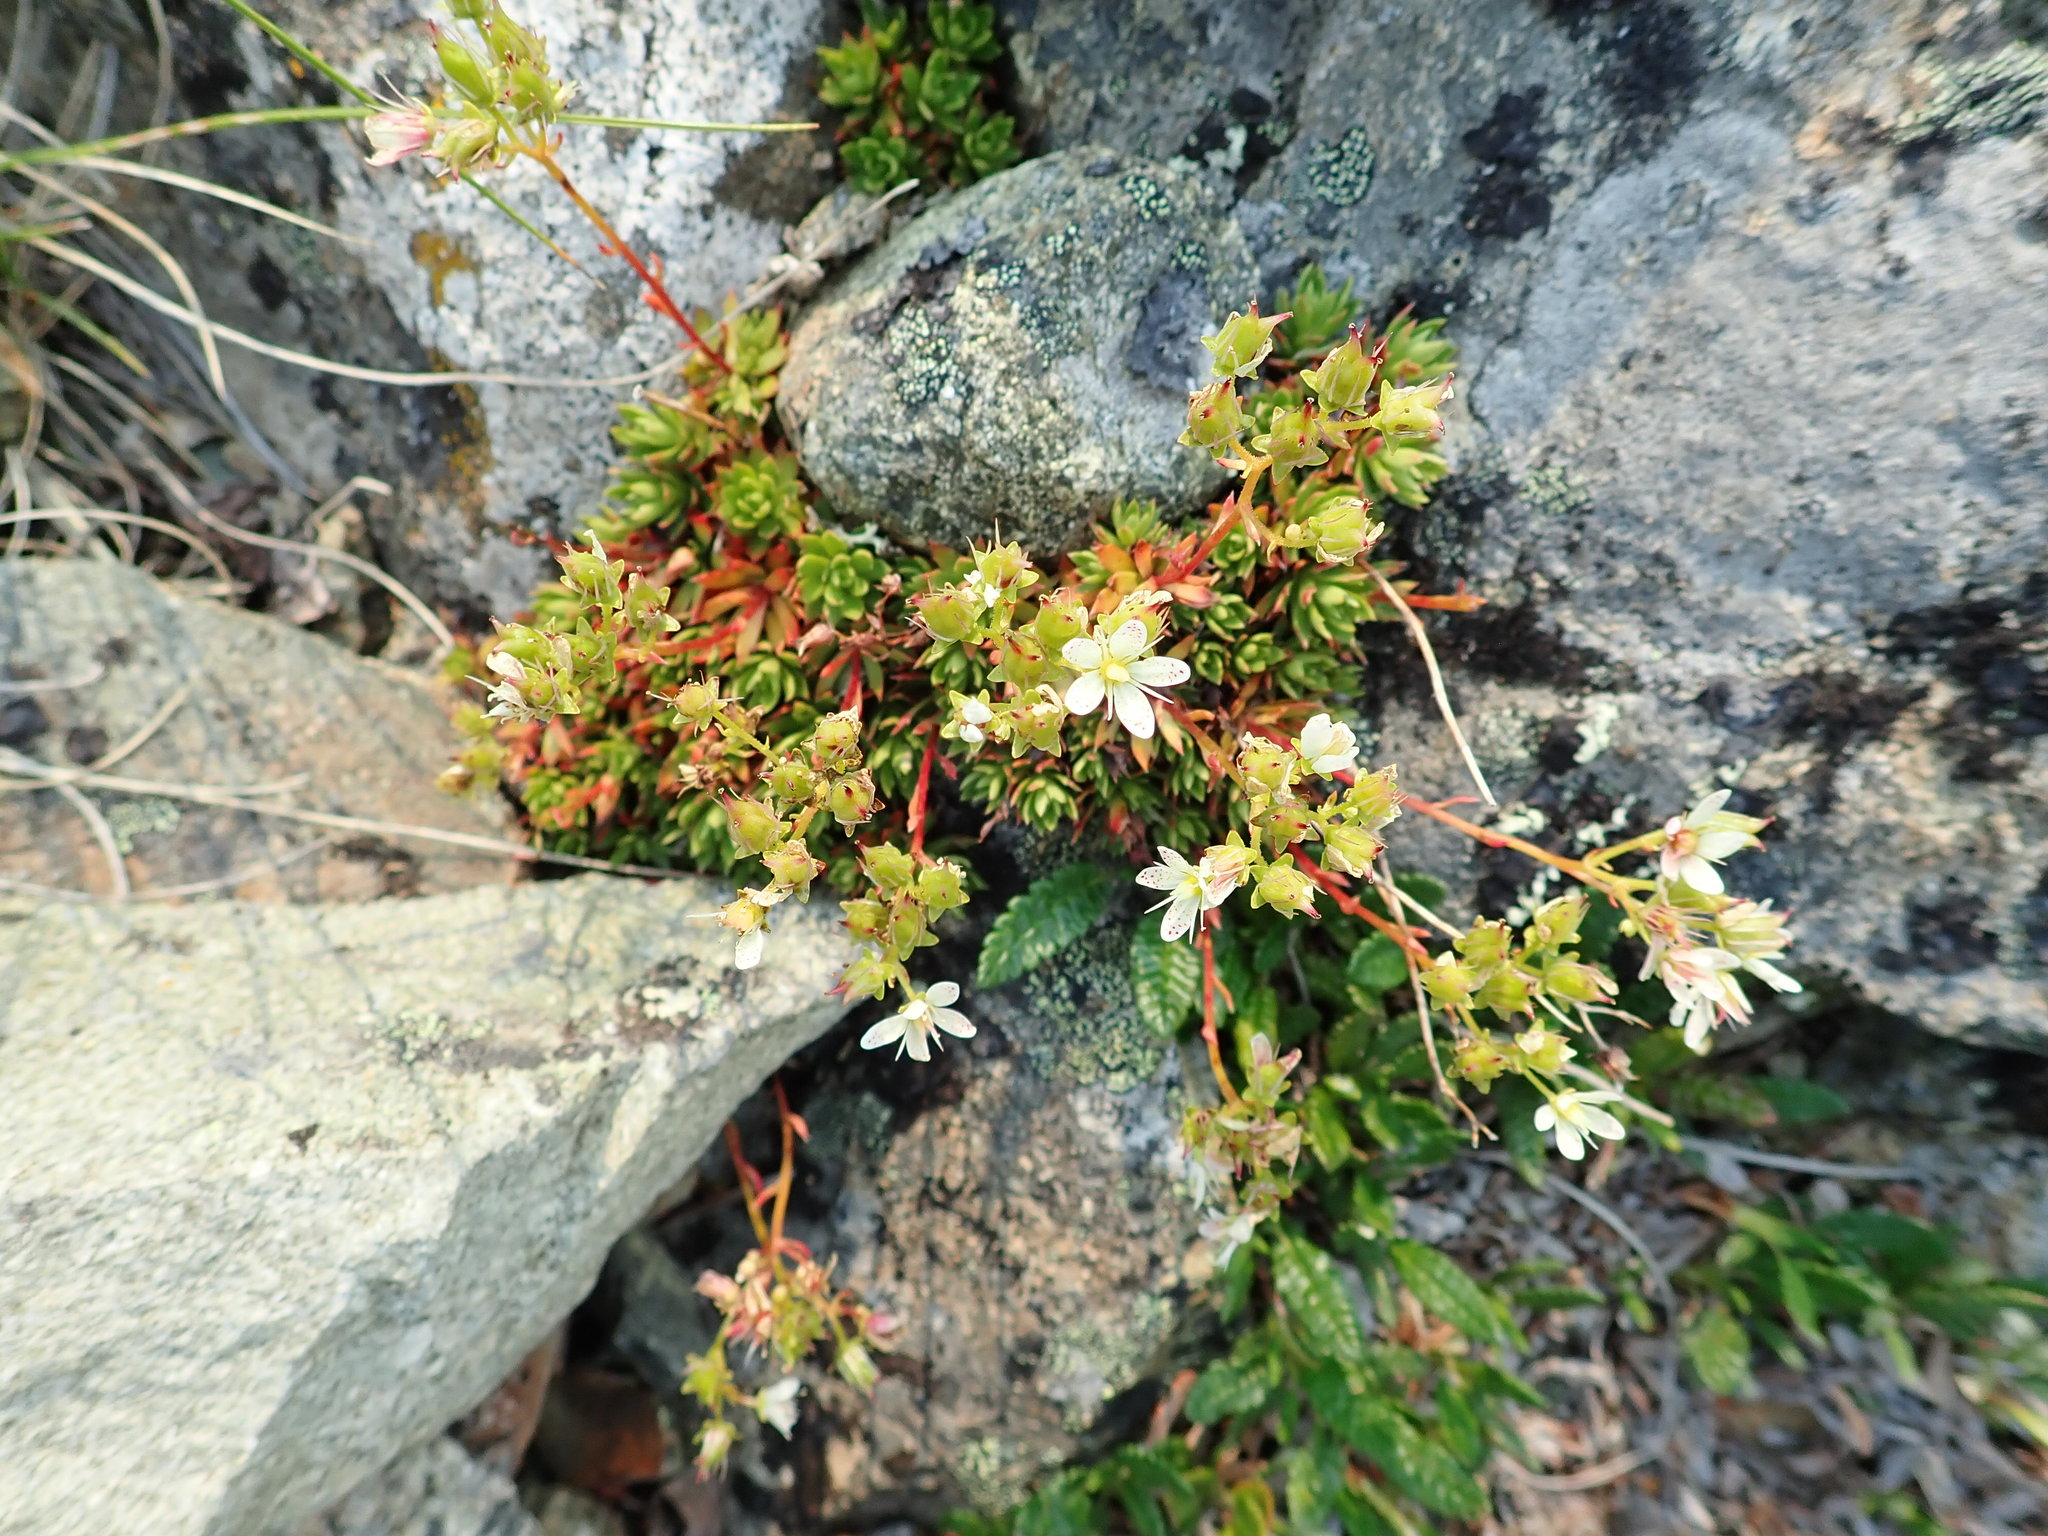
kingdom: Plantae
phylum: Tracheophyta
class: Magnoliopsida
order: Saxifragales
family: Saxifragaceae
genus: Saxifraga
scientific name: Saxifraga tricuspidata
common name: Prickly saxifrage
